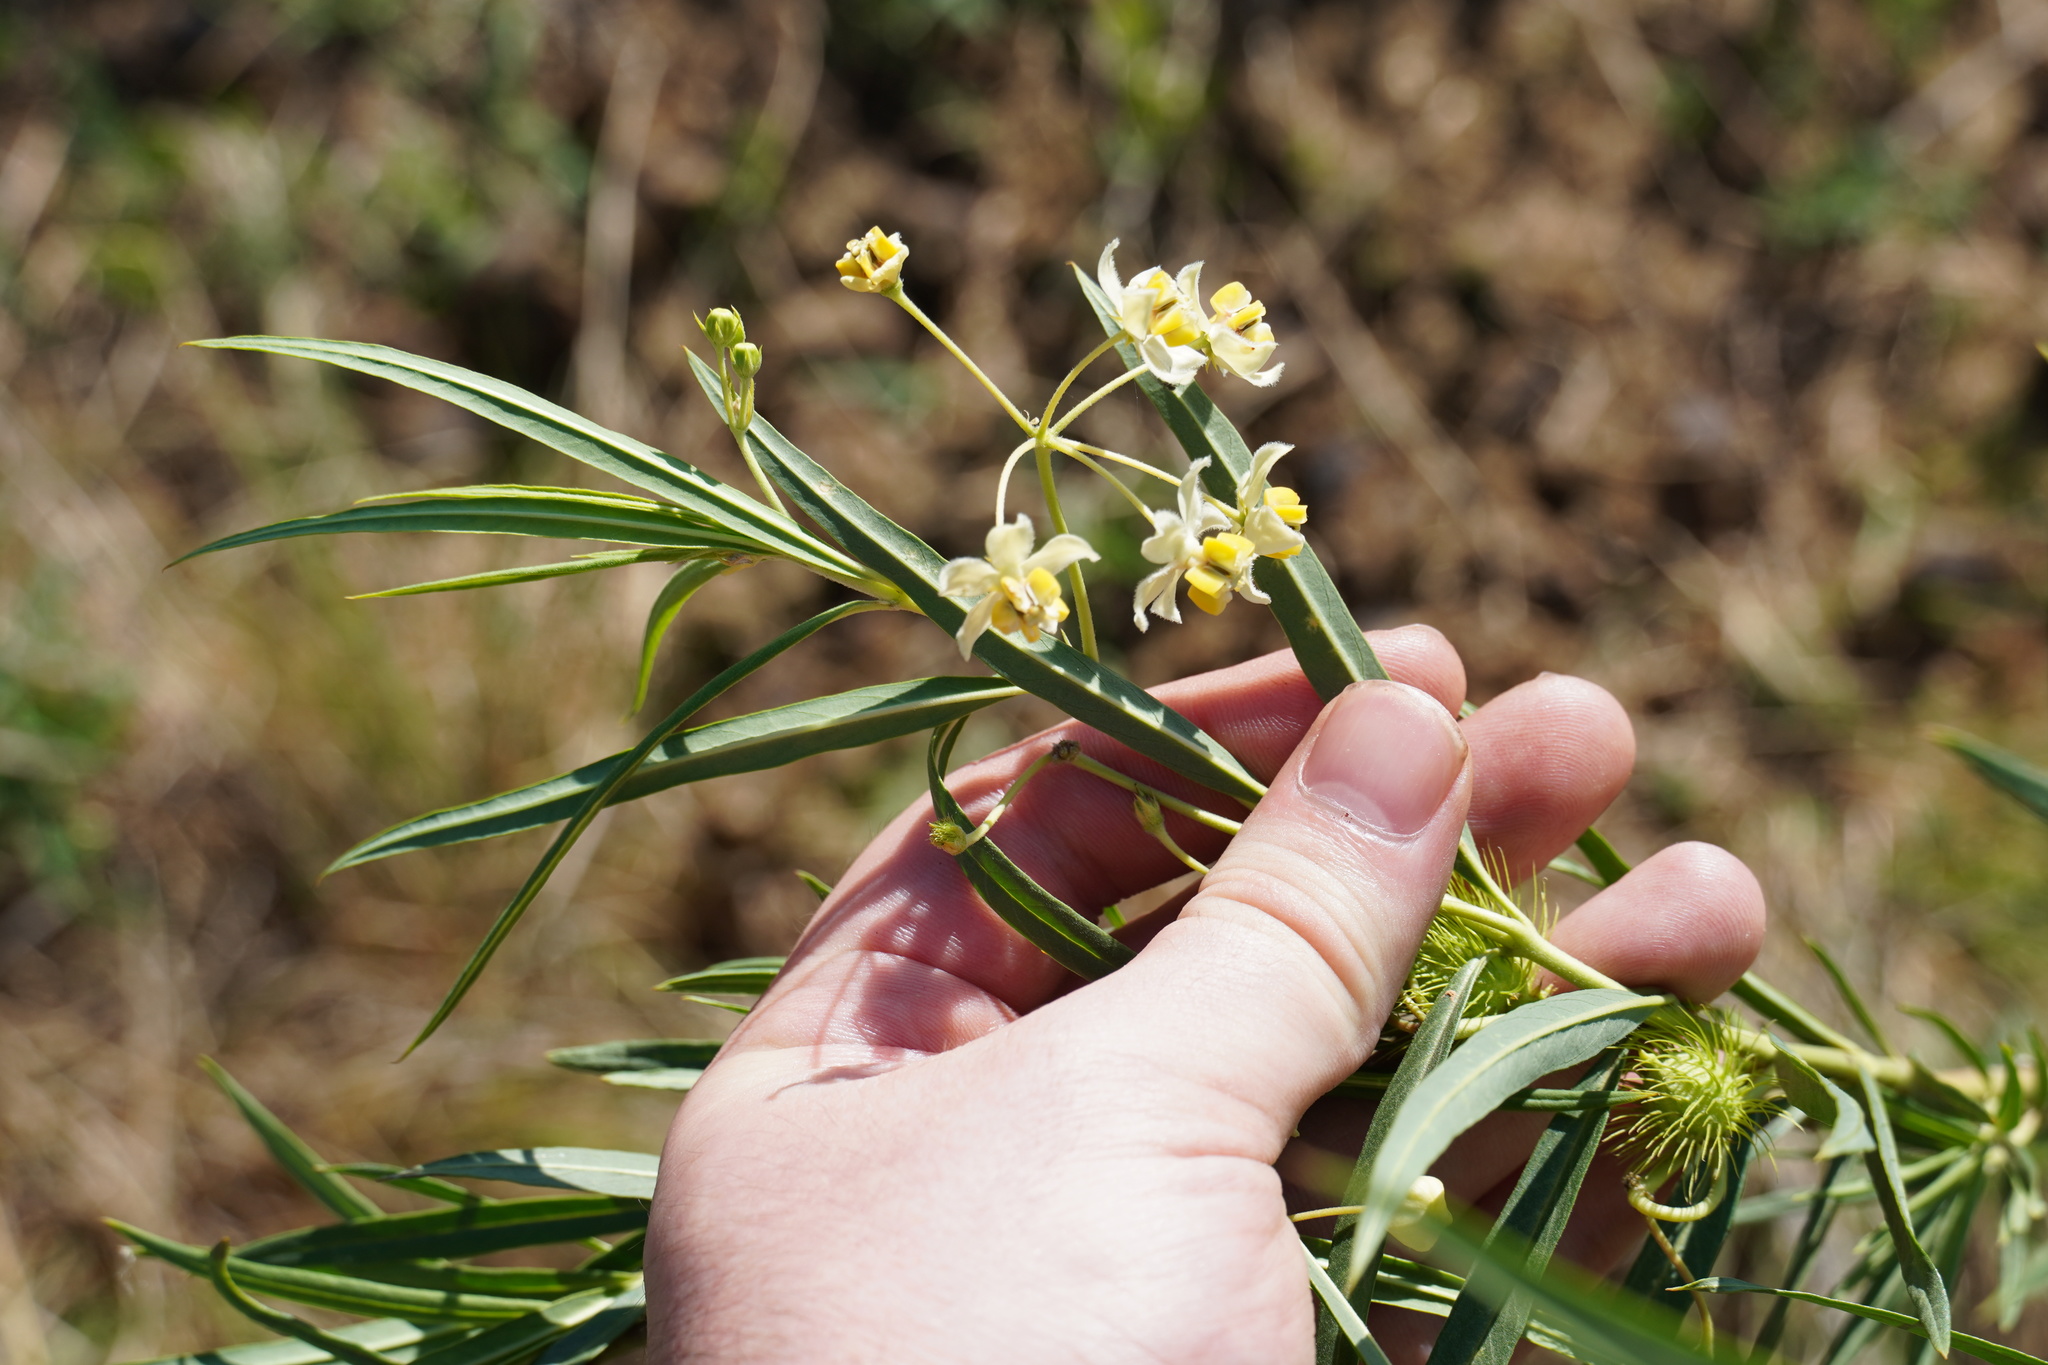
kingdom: Plantae
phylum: Tracheophyta
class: Magnoliopsida
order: Gentianales
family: Apocynaceae
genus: Gomphocarpus
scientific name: Gomphocarpus fruticosus
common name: Milkweed
